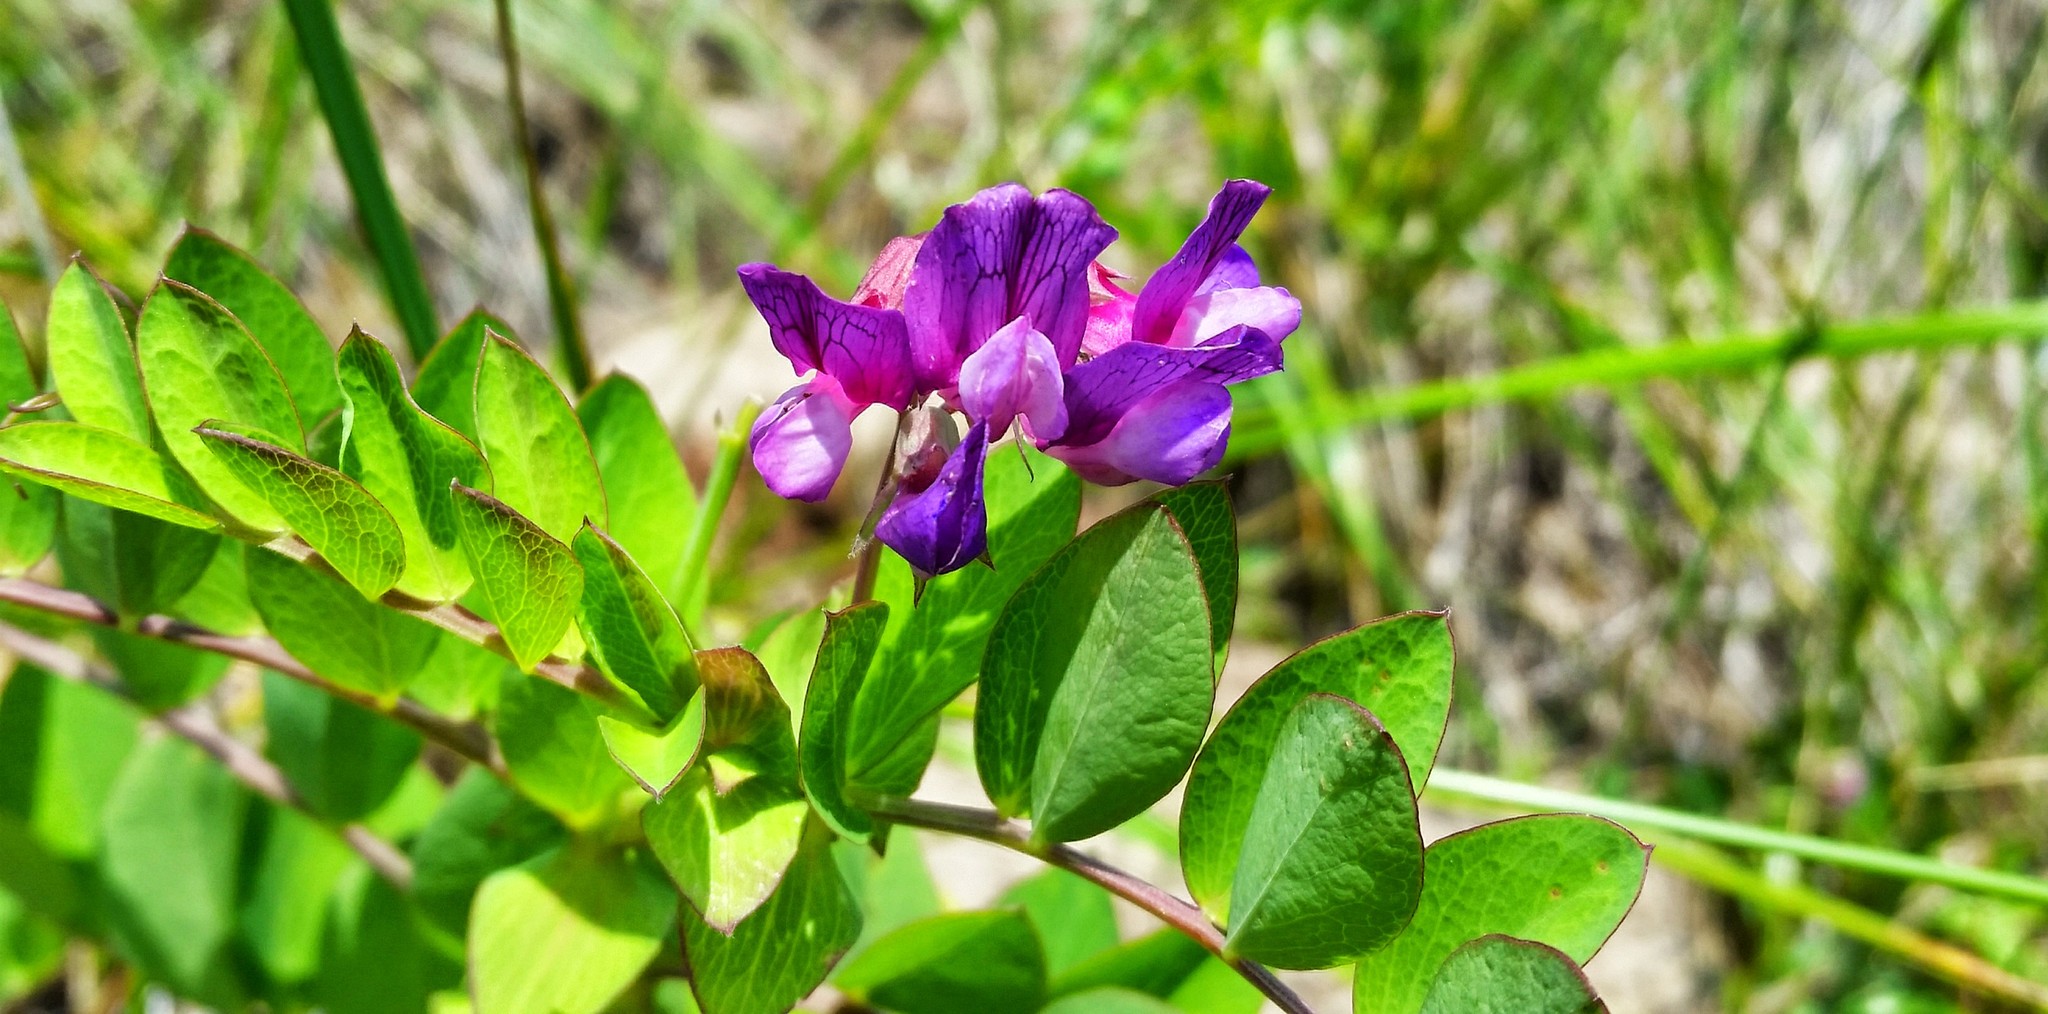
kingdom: Plantae
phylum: Tracheophyta
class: Magnoliopsida
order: Fabales
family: Fabaceae
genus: Lathyrus
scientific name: Lathyrus japonicus
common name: Sea pea
